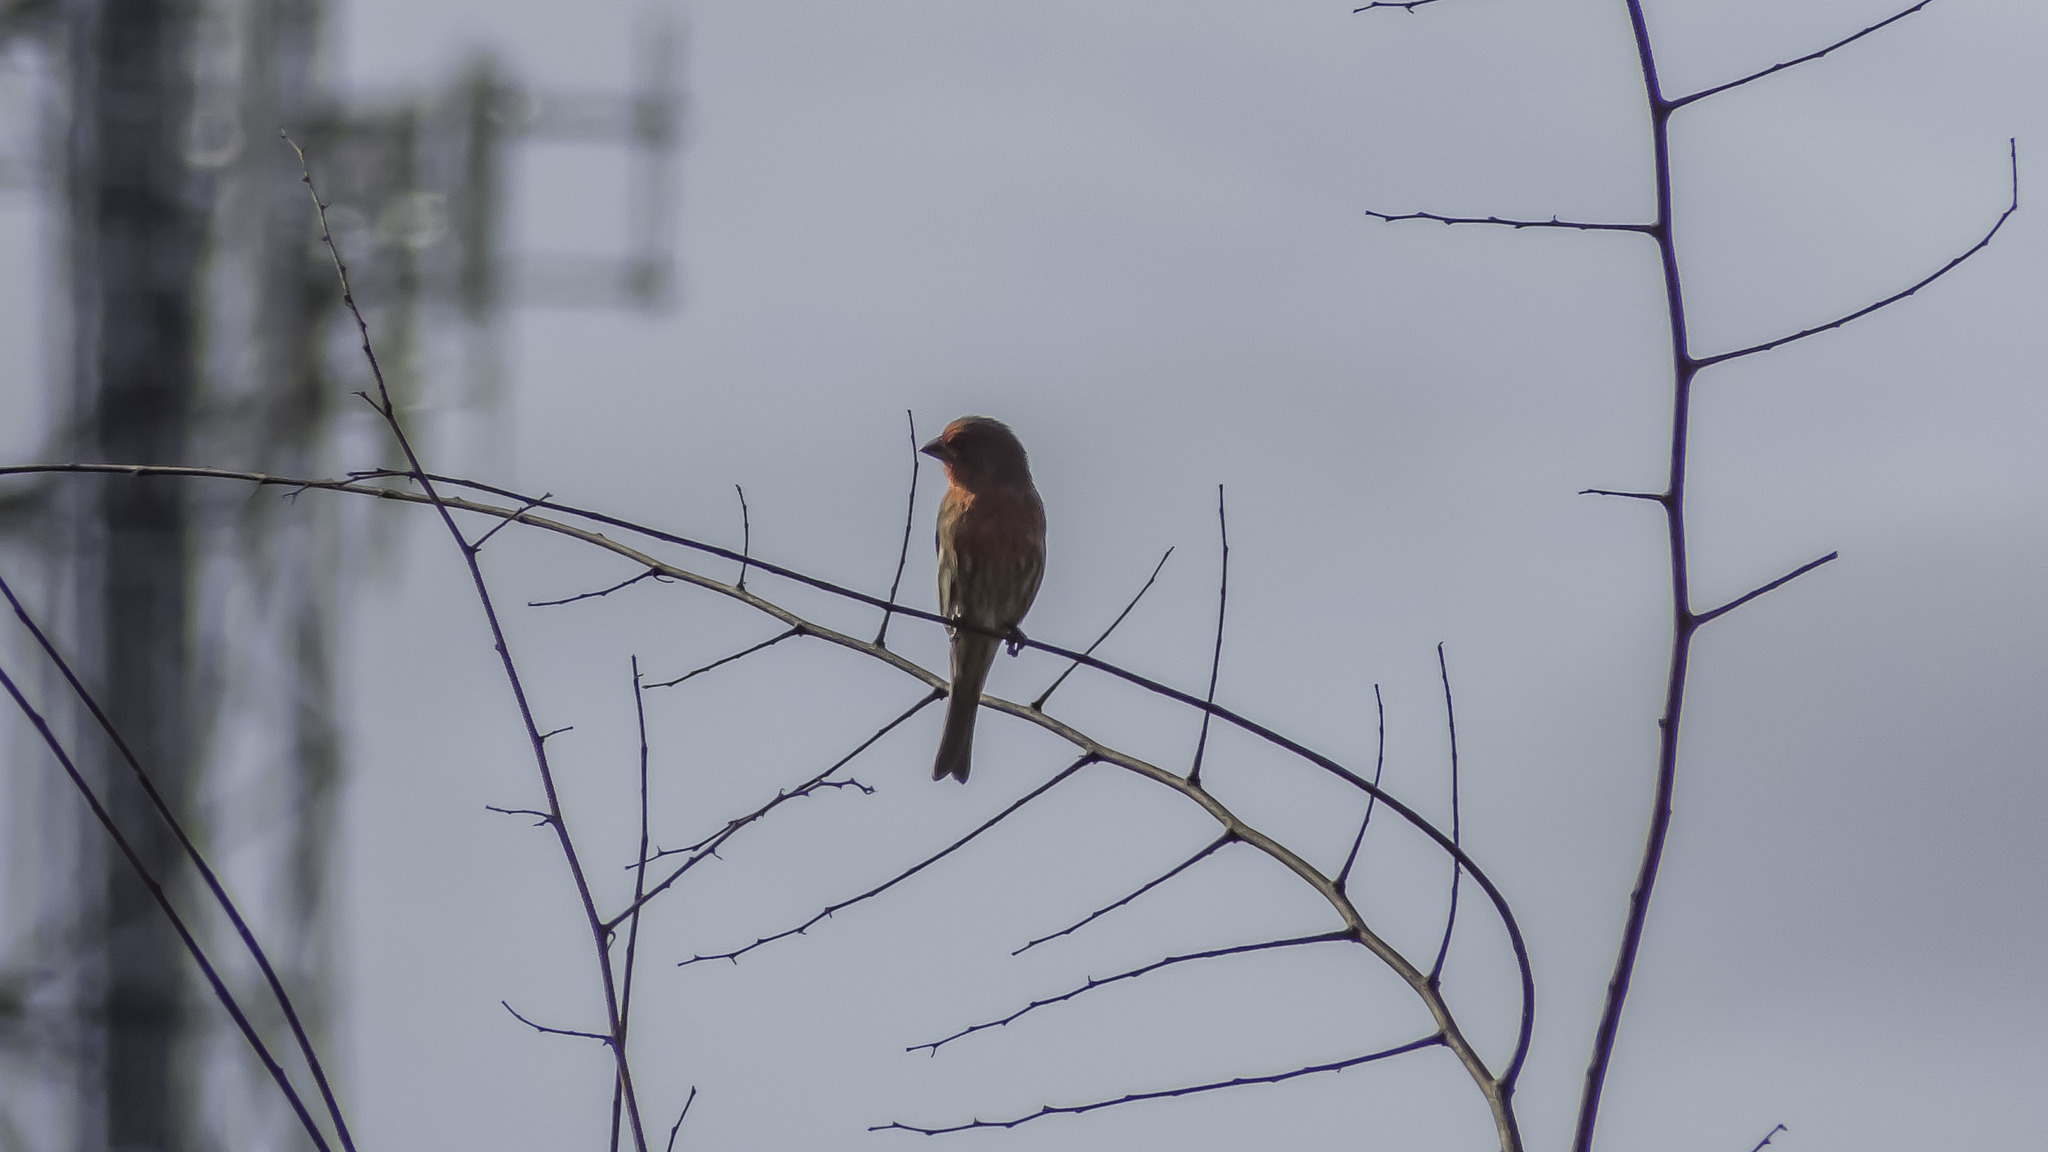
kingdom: Animalia
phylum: Chordata
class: Aves
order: Passeriformes
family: Fringillidae
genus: Haemorhous
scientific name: Haemorhous mexicanus
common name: House finch
